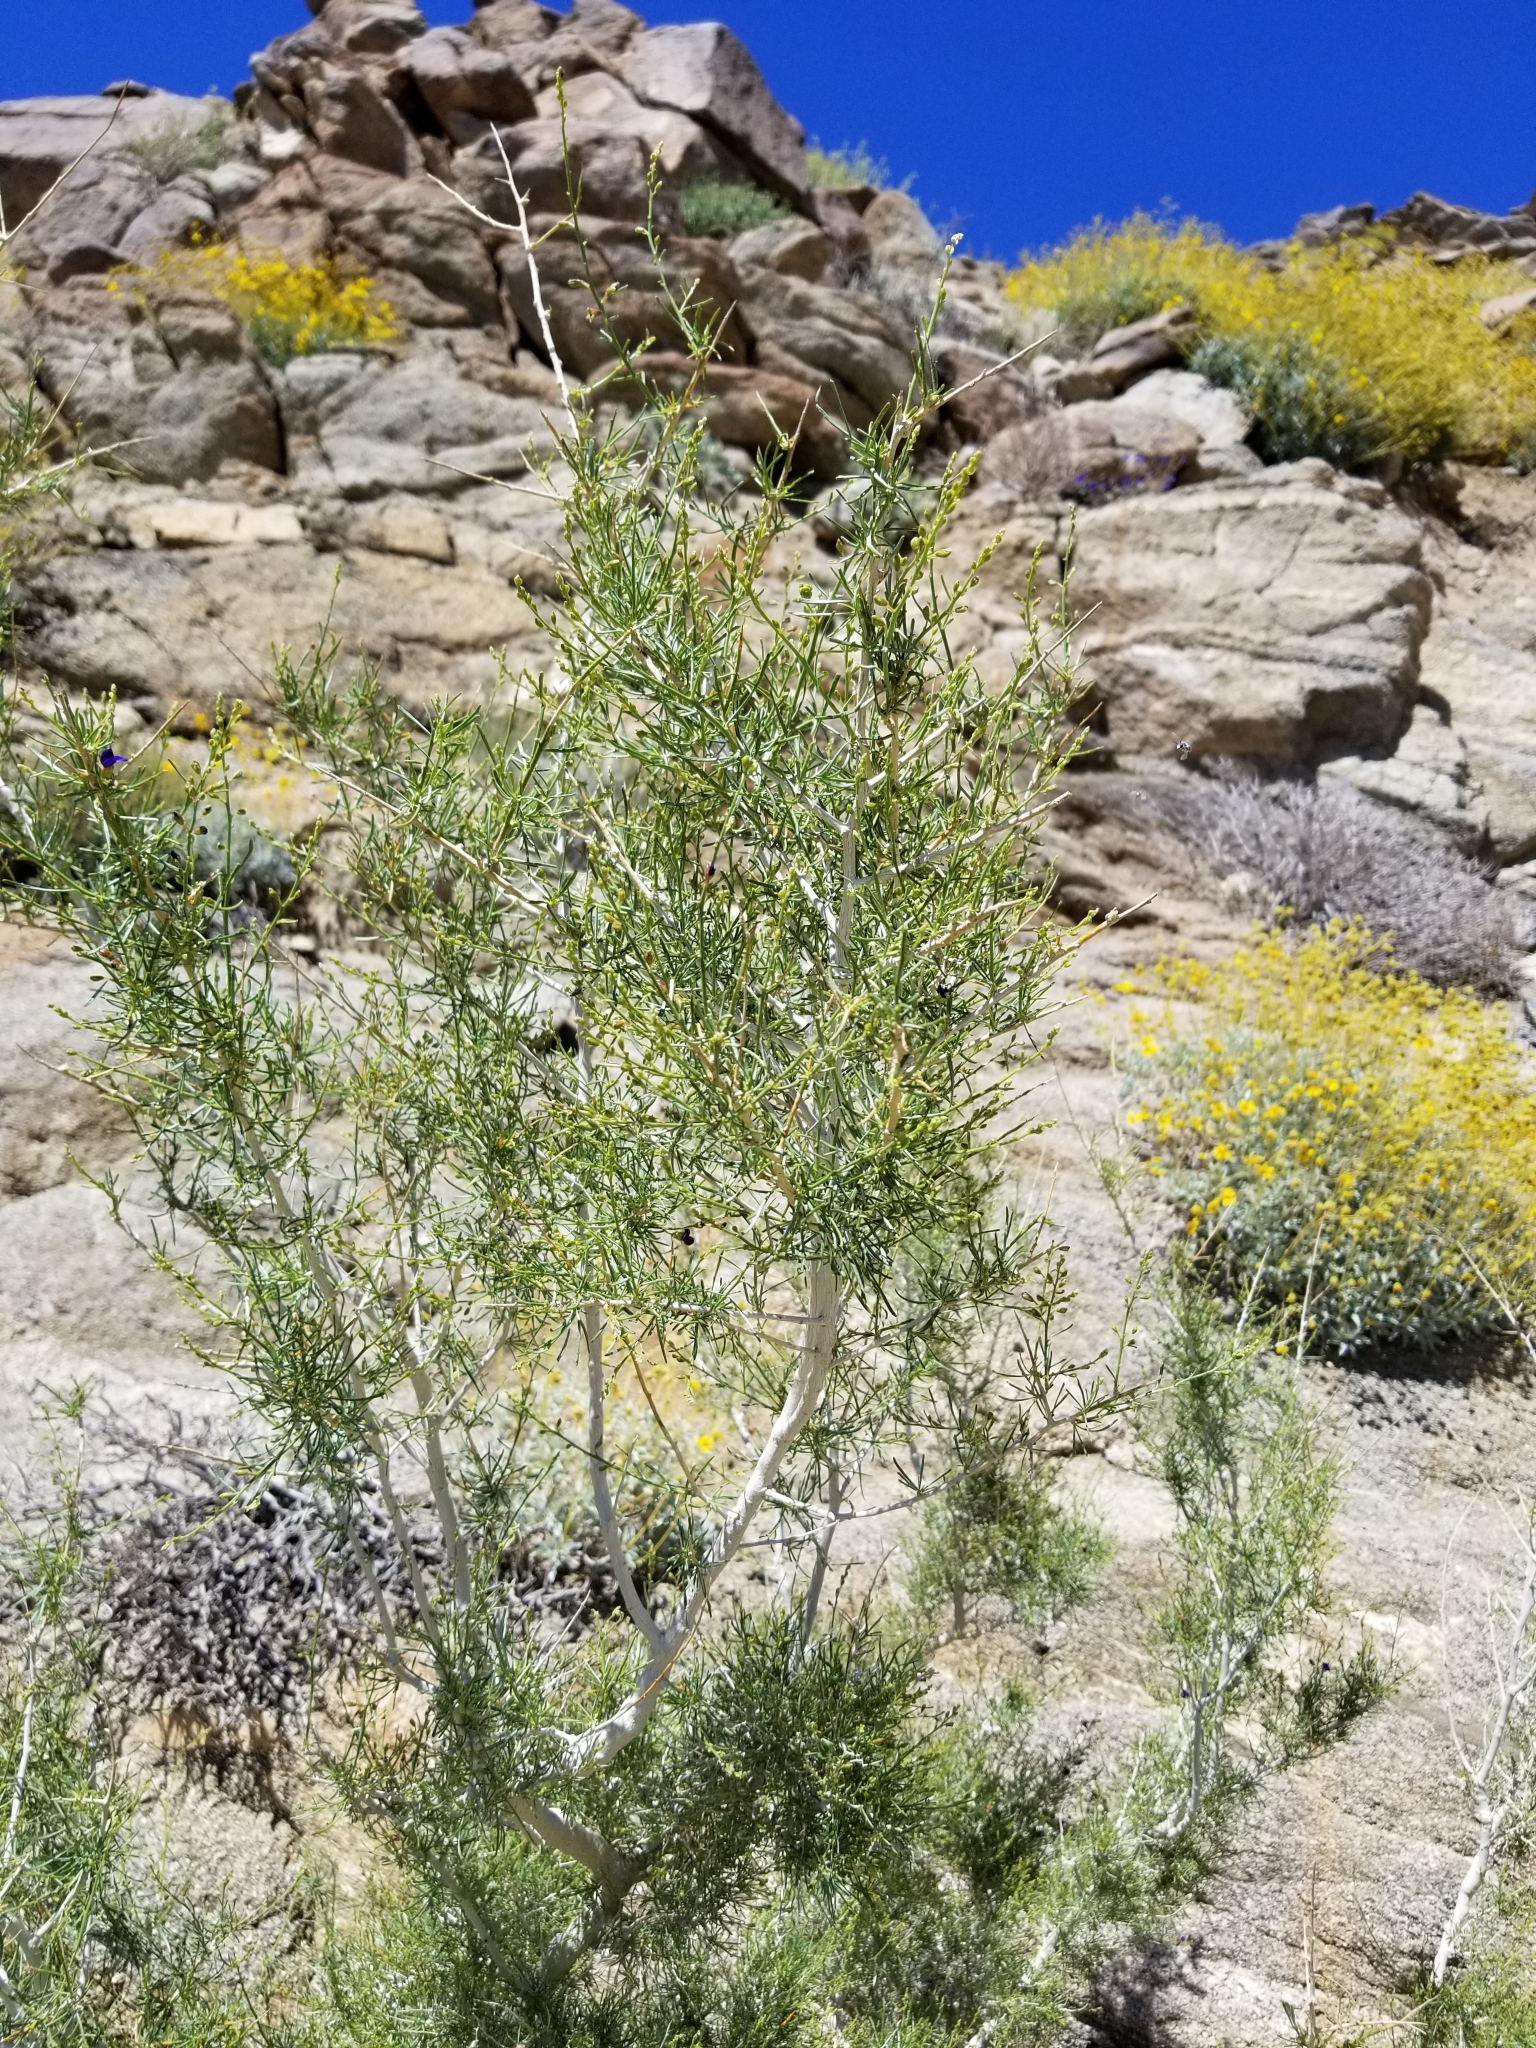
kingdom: Plantae
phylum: Tracheophyta
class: Magnoliopsida
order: Fabales
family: Fabaceae
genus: Psorothamnus
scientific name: Psorothamnus schottii
